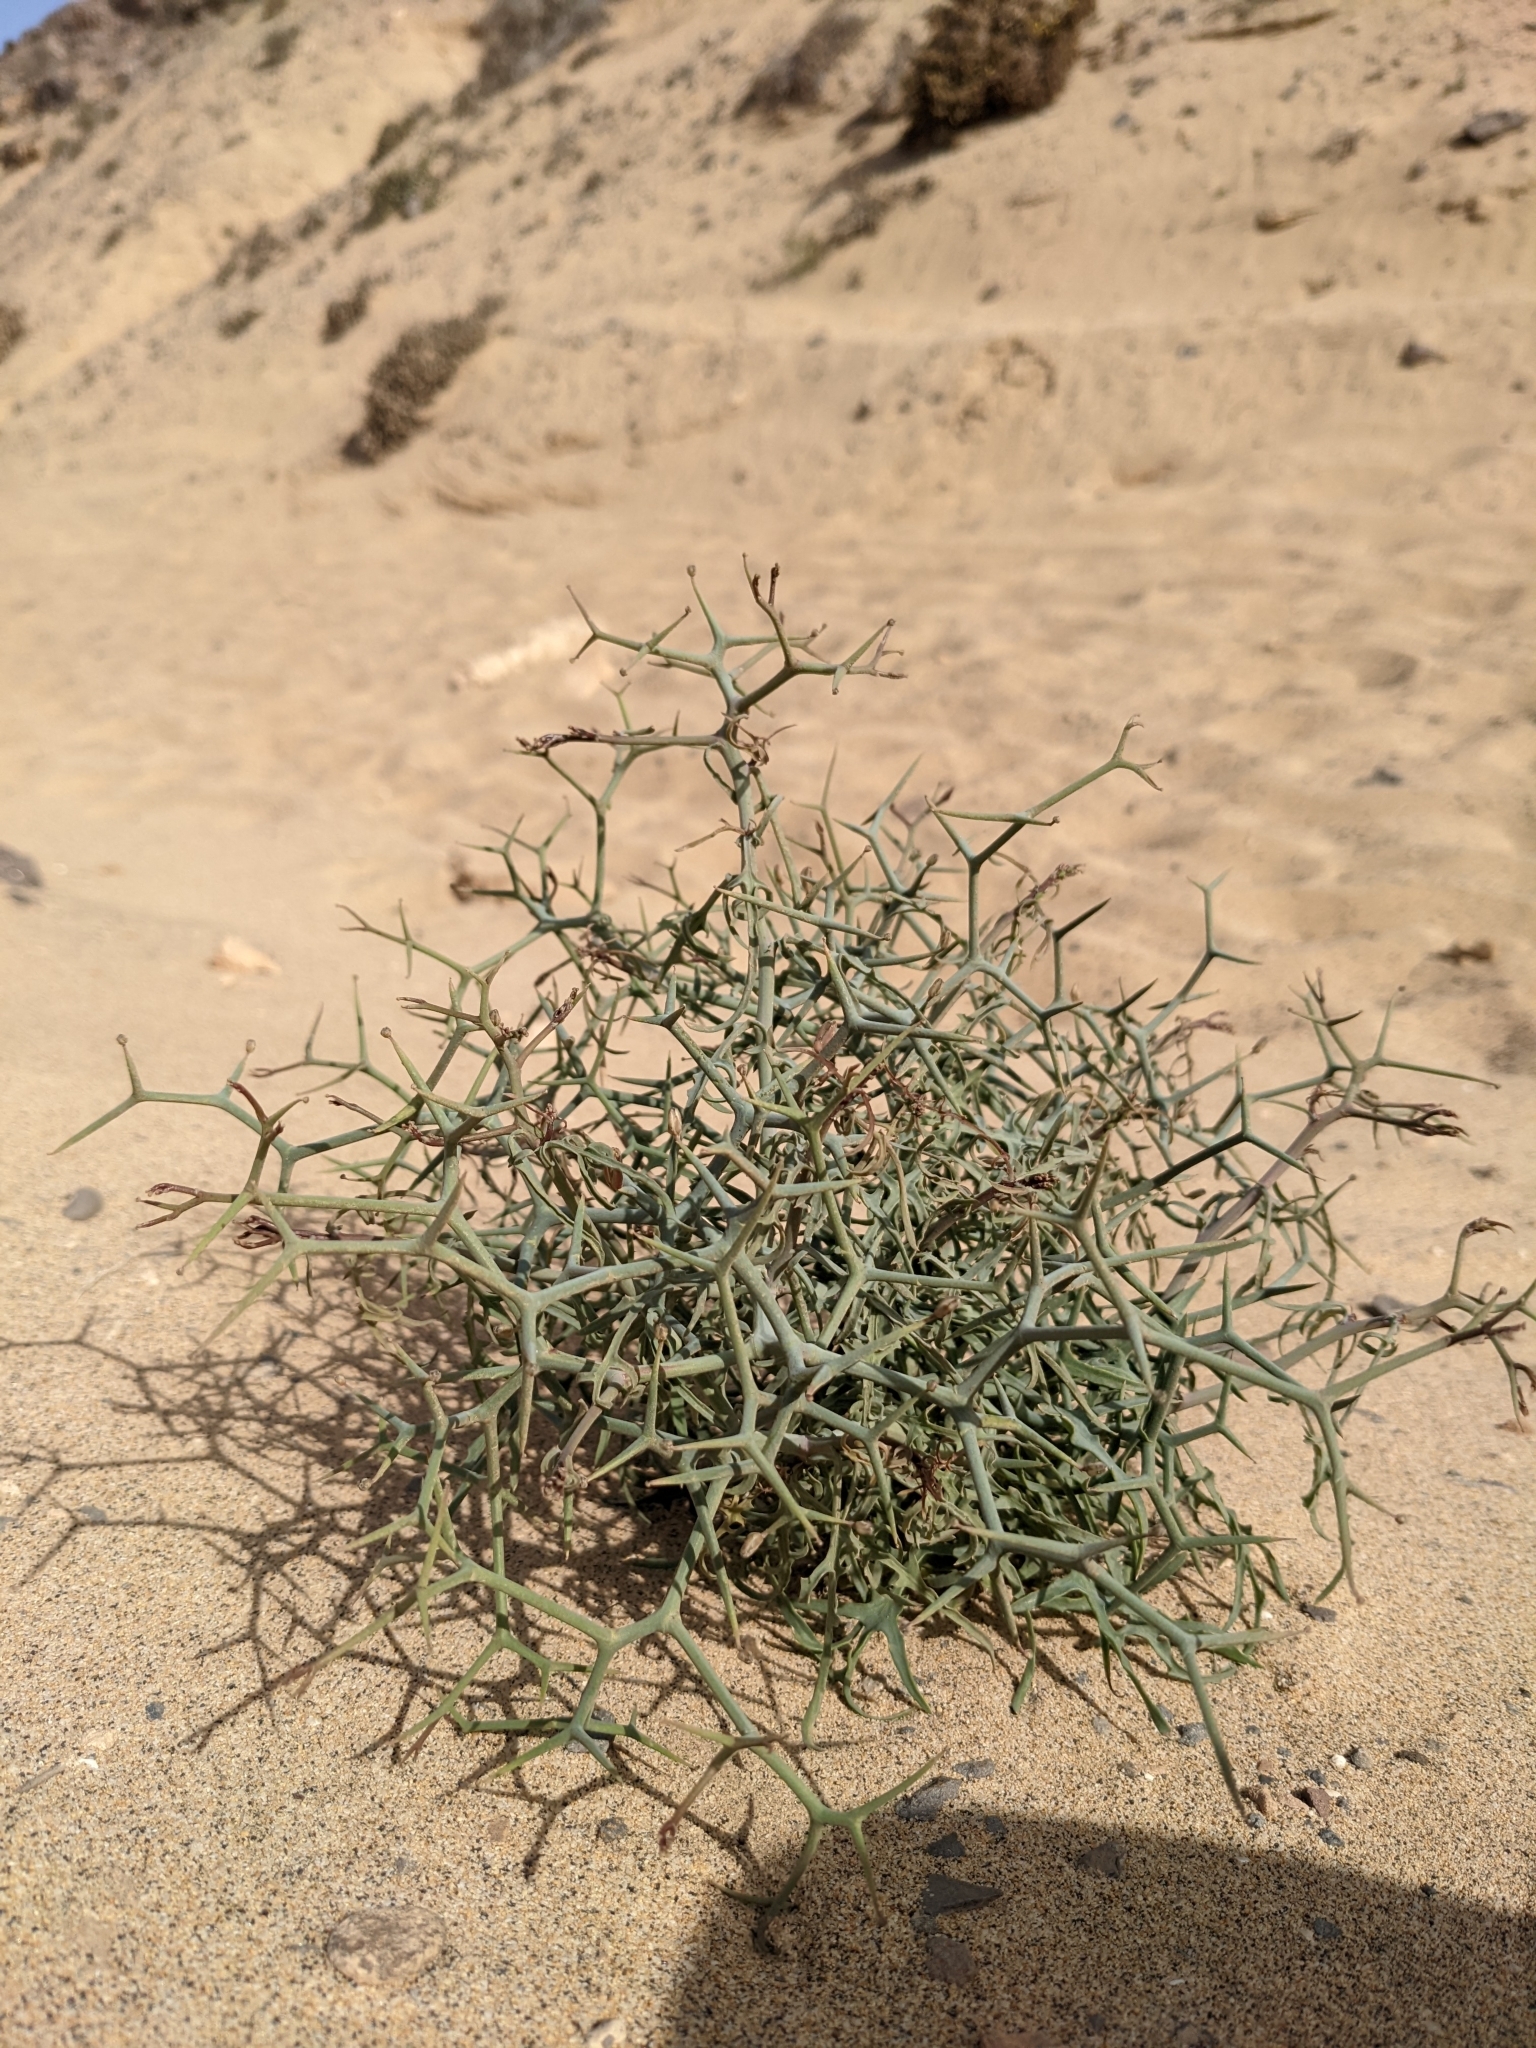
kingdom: Plantae
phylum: Tracheophyta
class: Magnoliopsida
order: Asterales
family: Asteraceae
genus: Launaea
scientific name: Launaea arborescens
